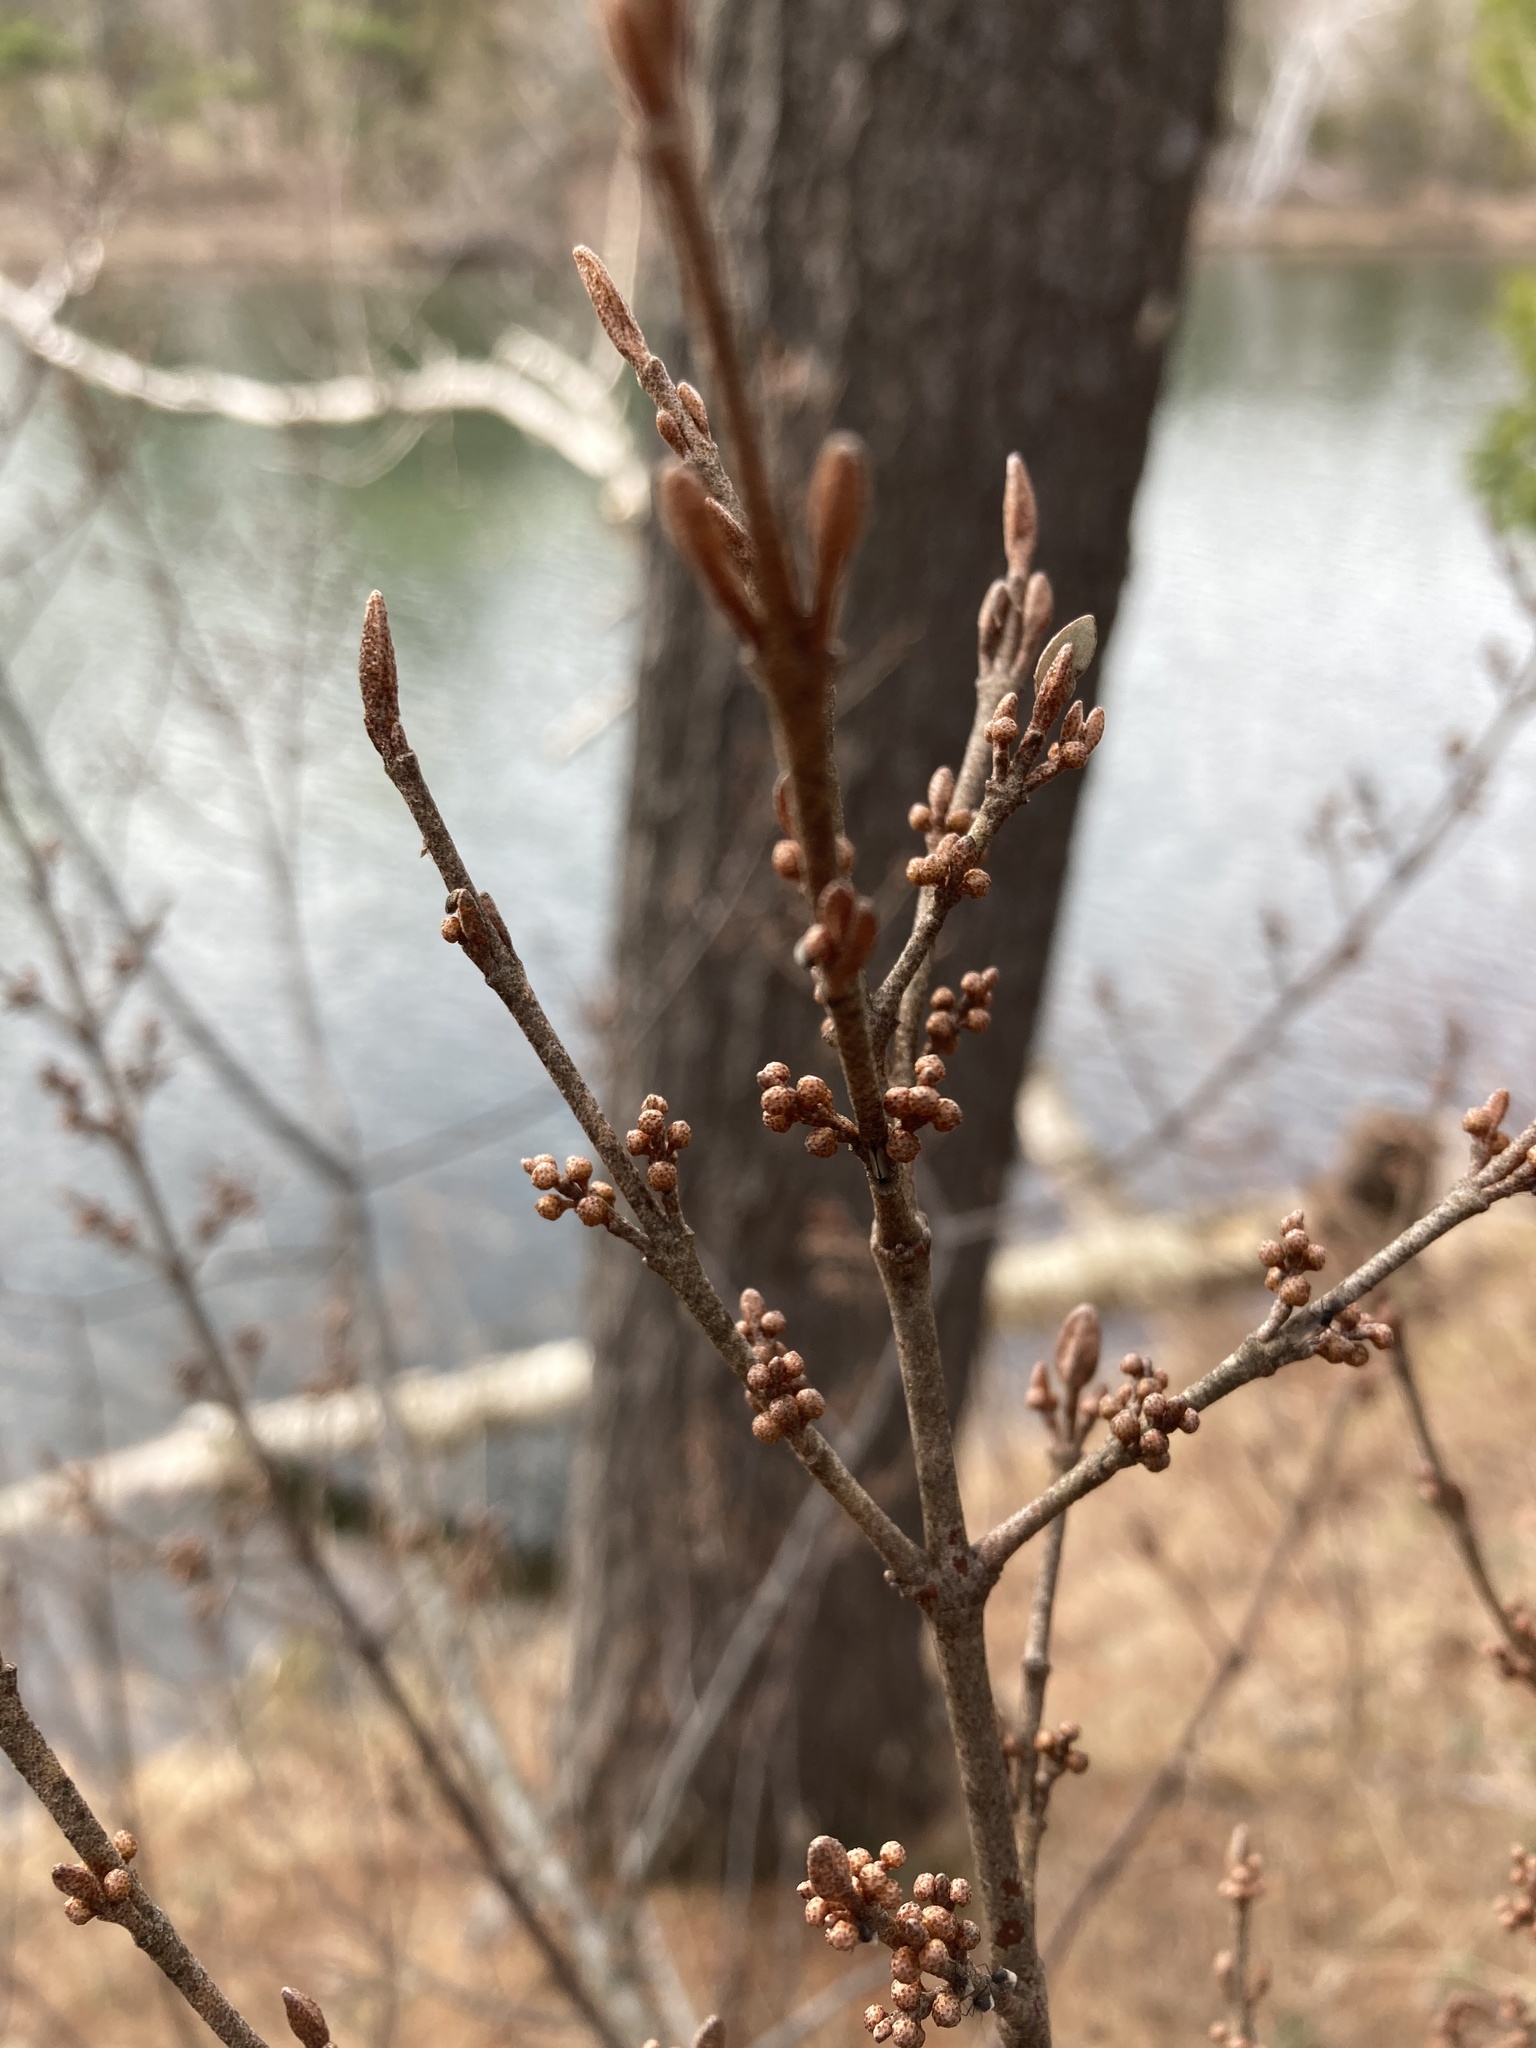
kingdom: Plantae
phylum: Tracheophyta
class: Magnoliopsida
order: Rosales
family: Elaeagnaceae
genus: Shepherdia
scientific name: Shepherdia canadensis
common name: Soapberry
